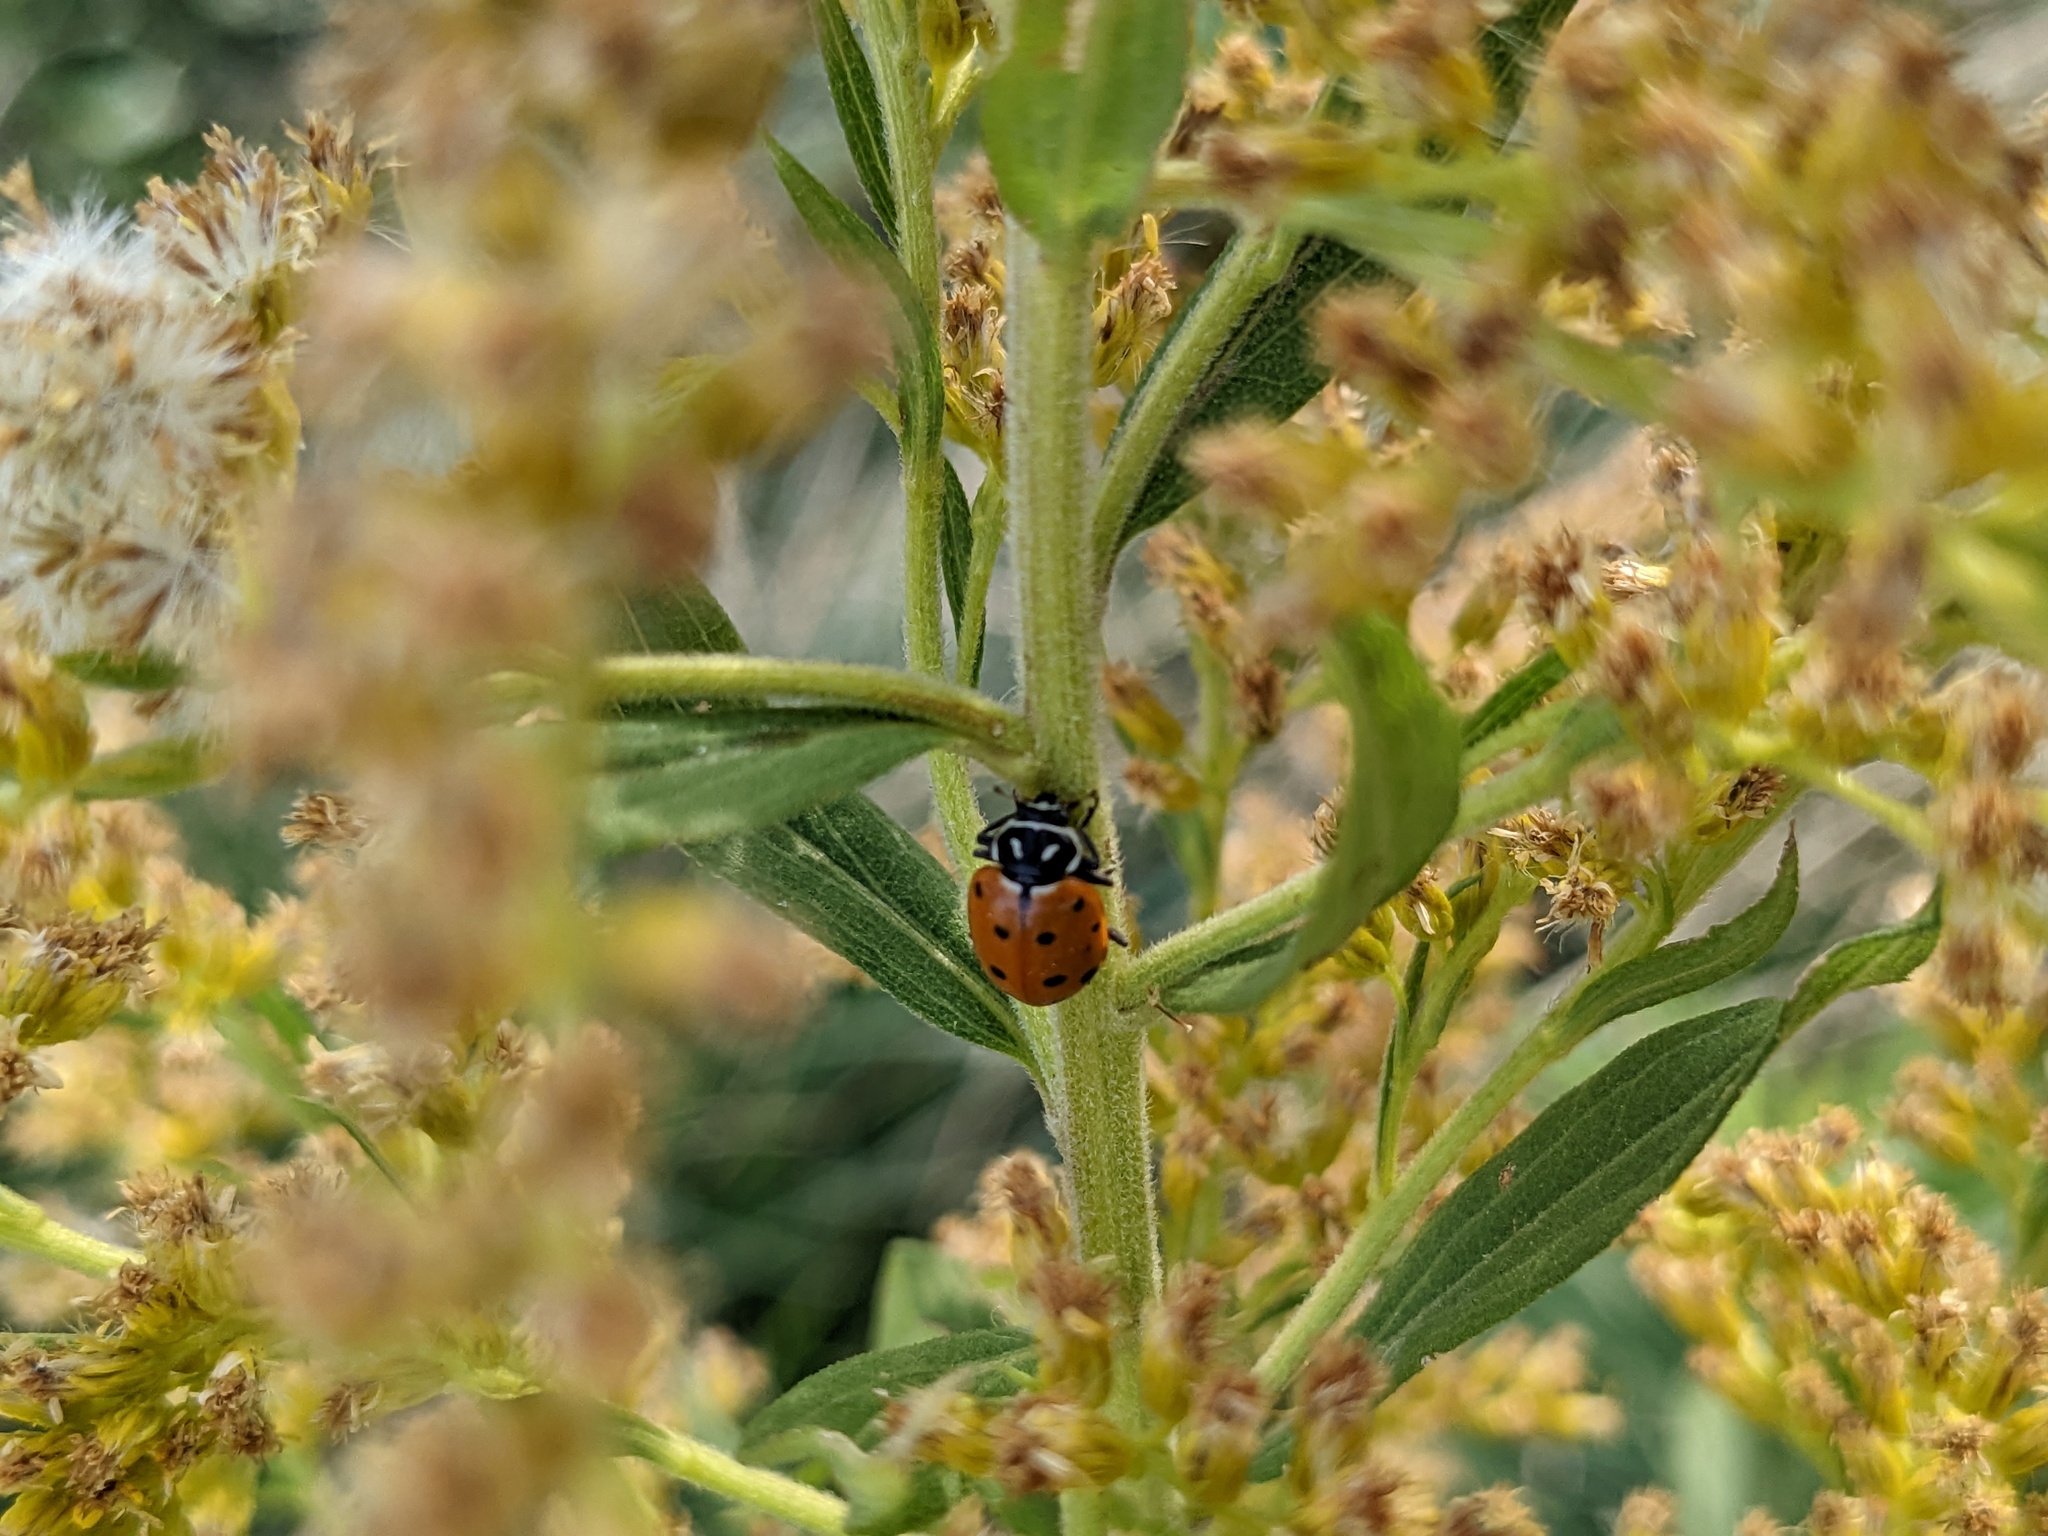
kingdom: Animalia
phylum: Arthropoda
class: Insecta
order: Coleoptera
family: Coccinellidae
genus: Hippodamia
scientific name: Hippodamia convergens
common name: Convergent lady beetle
